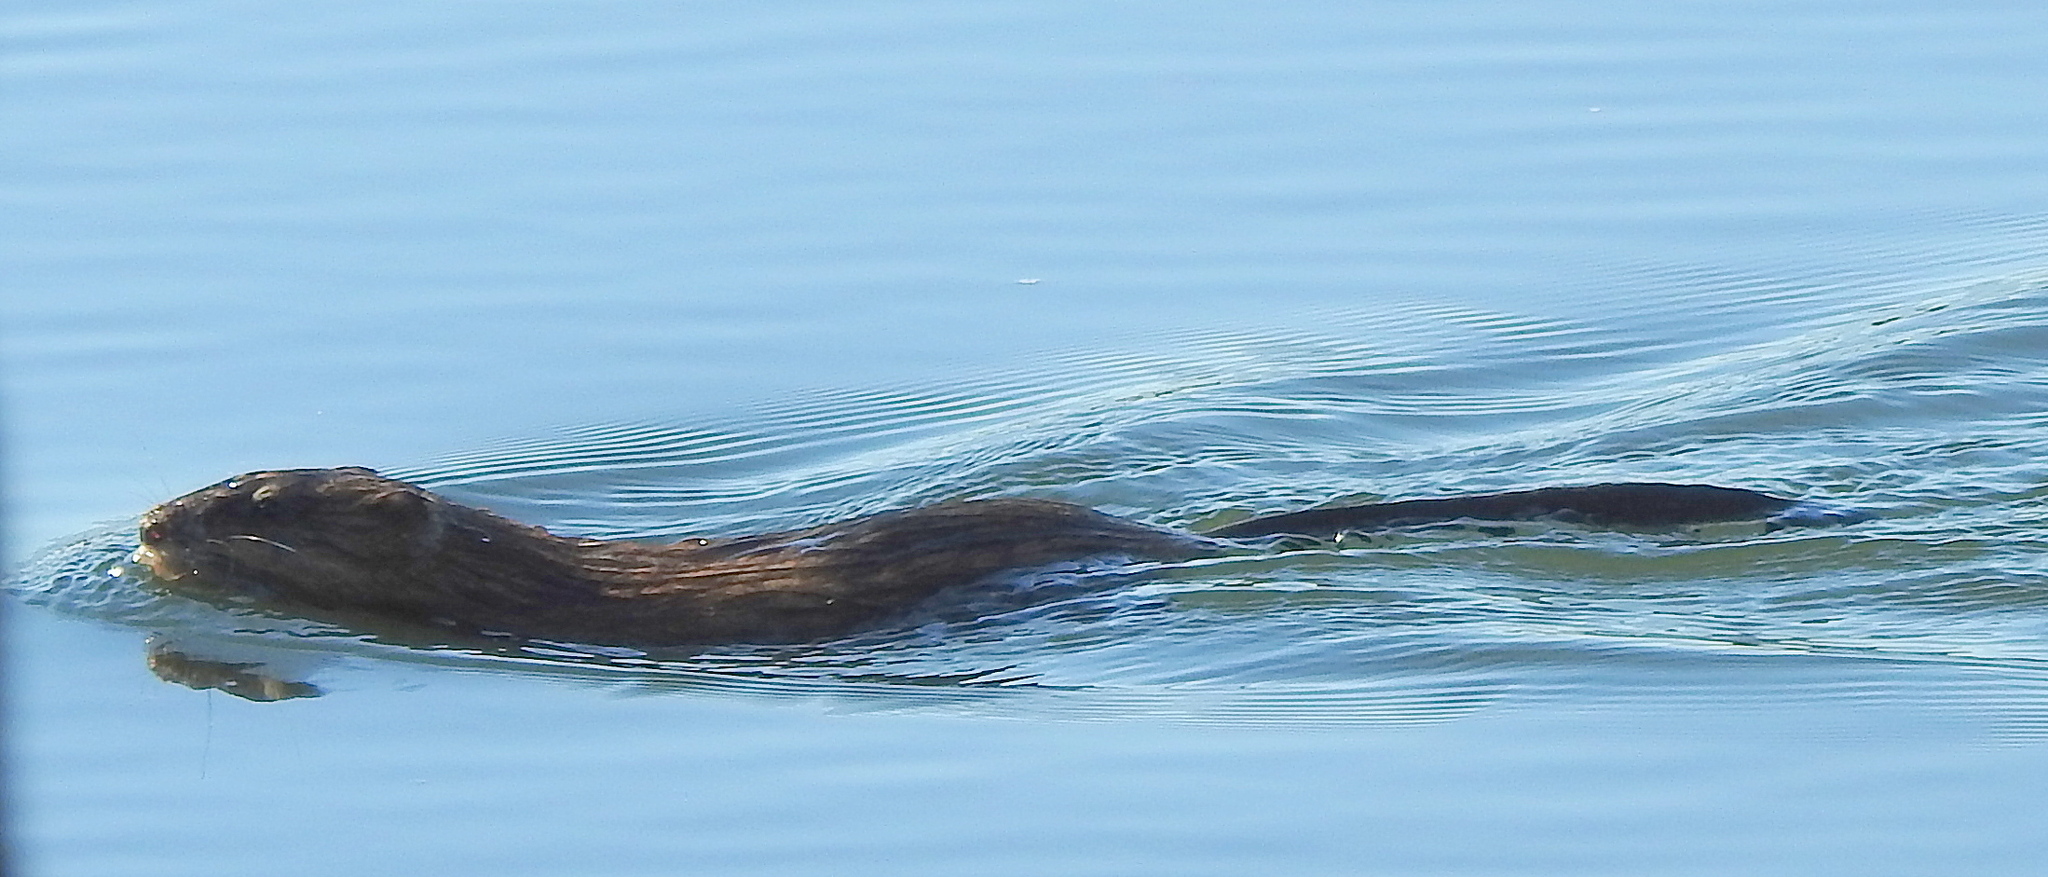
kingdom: Animalia
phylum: Chordata
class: Mammalia
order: Rodentia
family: Cricetidae
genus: Ondatra
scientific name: Ondatra zibethicus
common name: Muskrat
